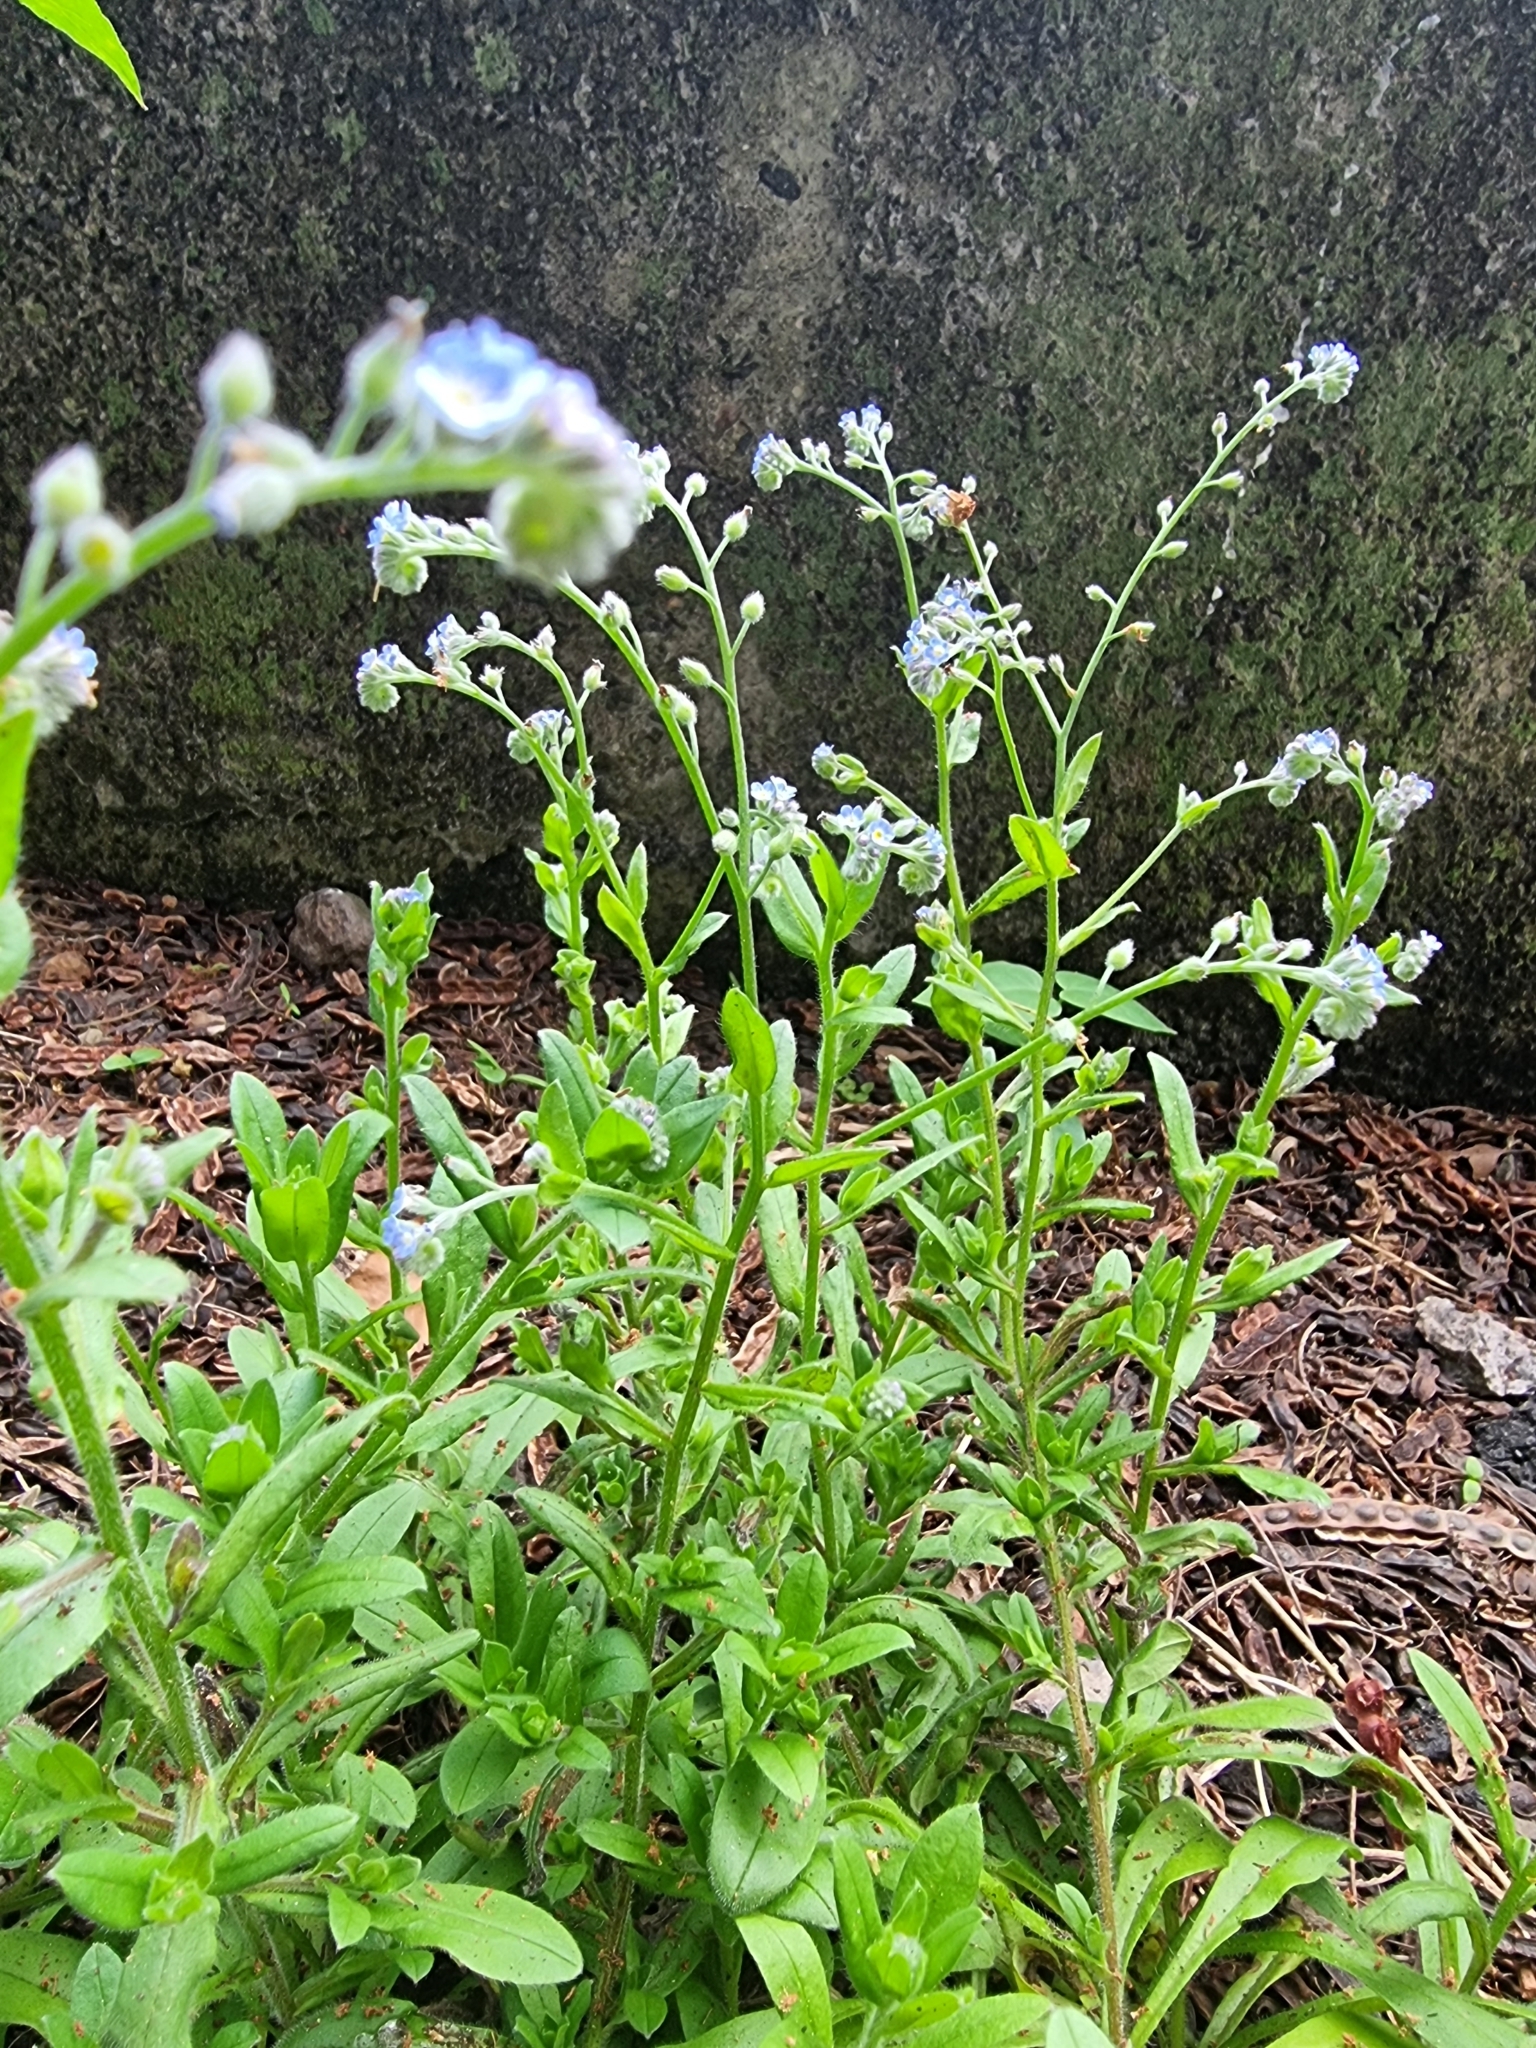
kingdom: Plantae
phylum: Tracheophyta
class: Magnoliopsida
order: Boraginales
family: Boraginaceae
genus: Myosotis
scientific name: Myosotis arvensis
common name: Field forget-me-not
